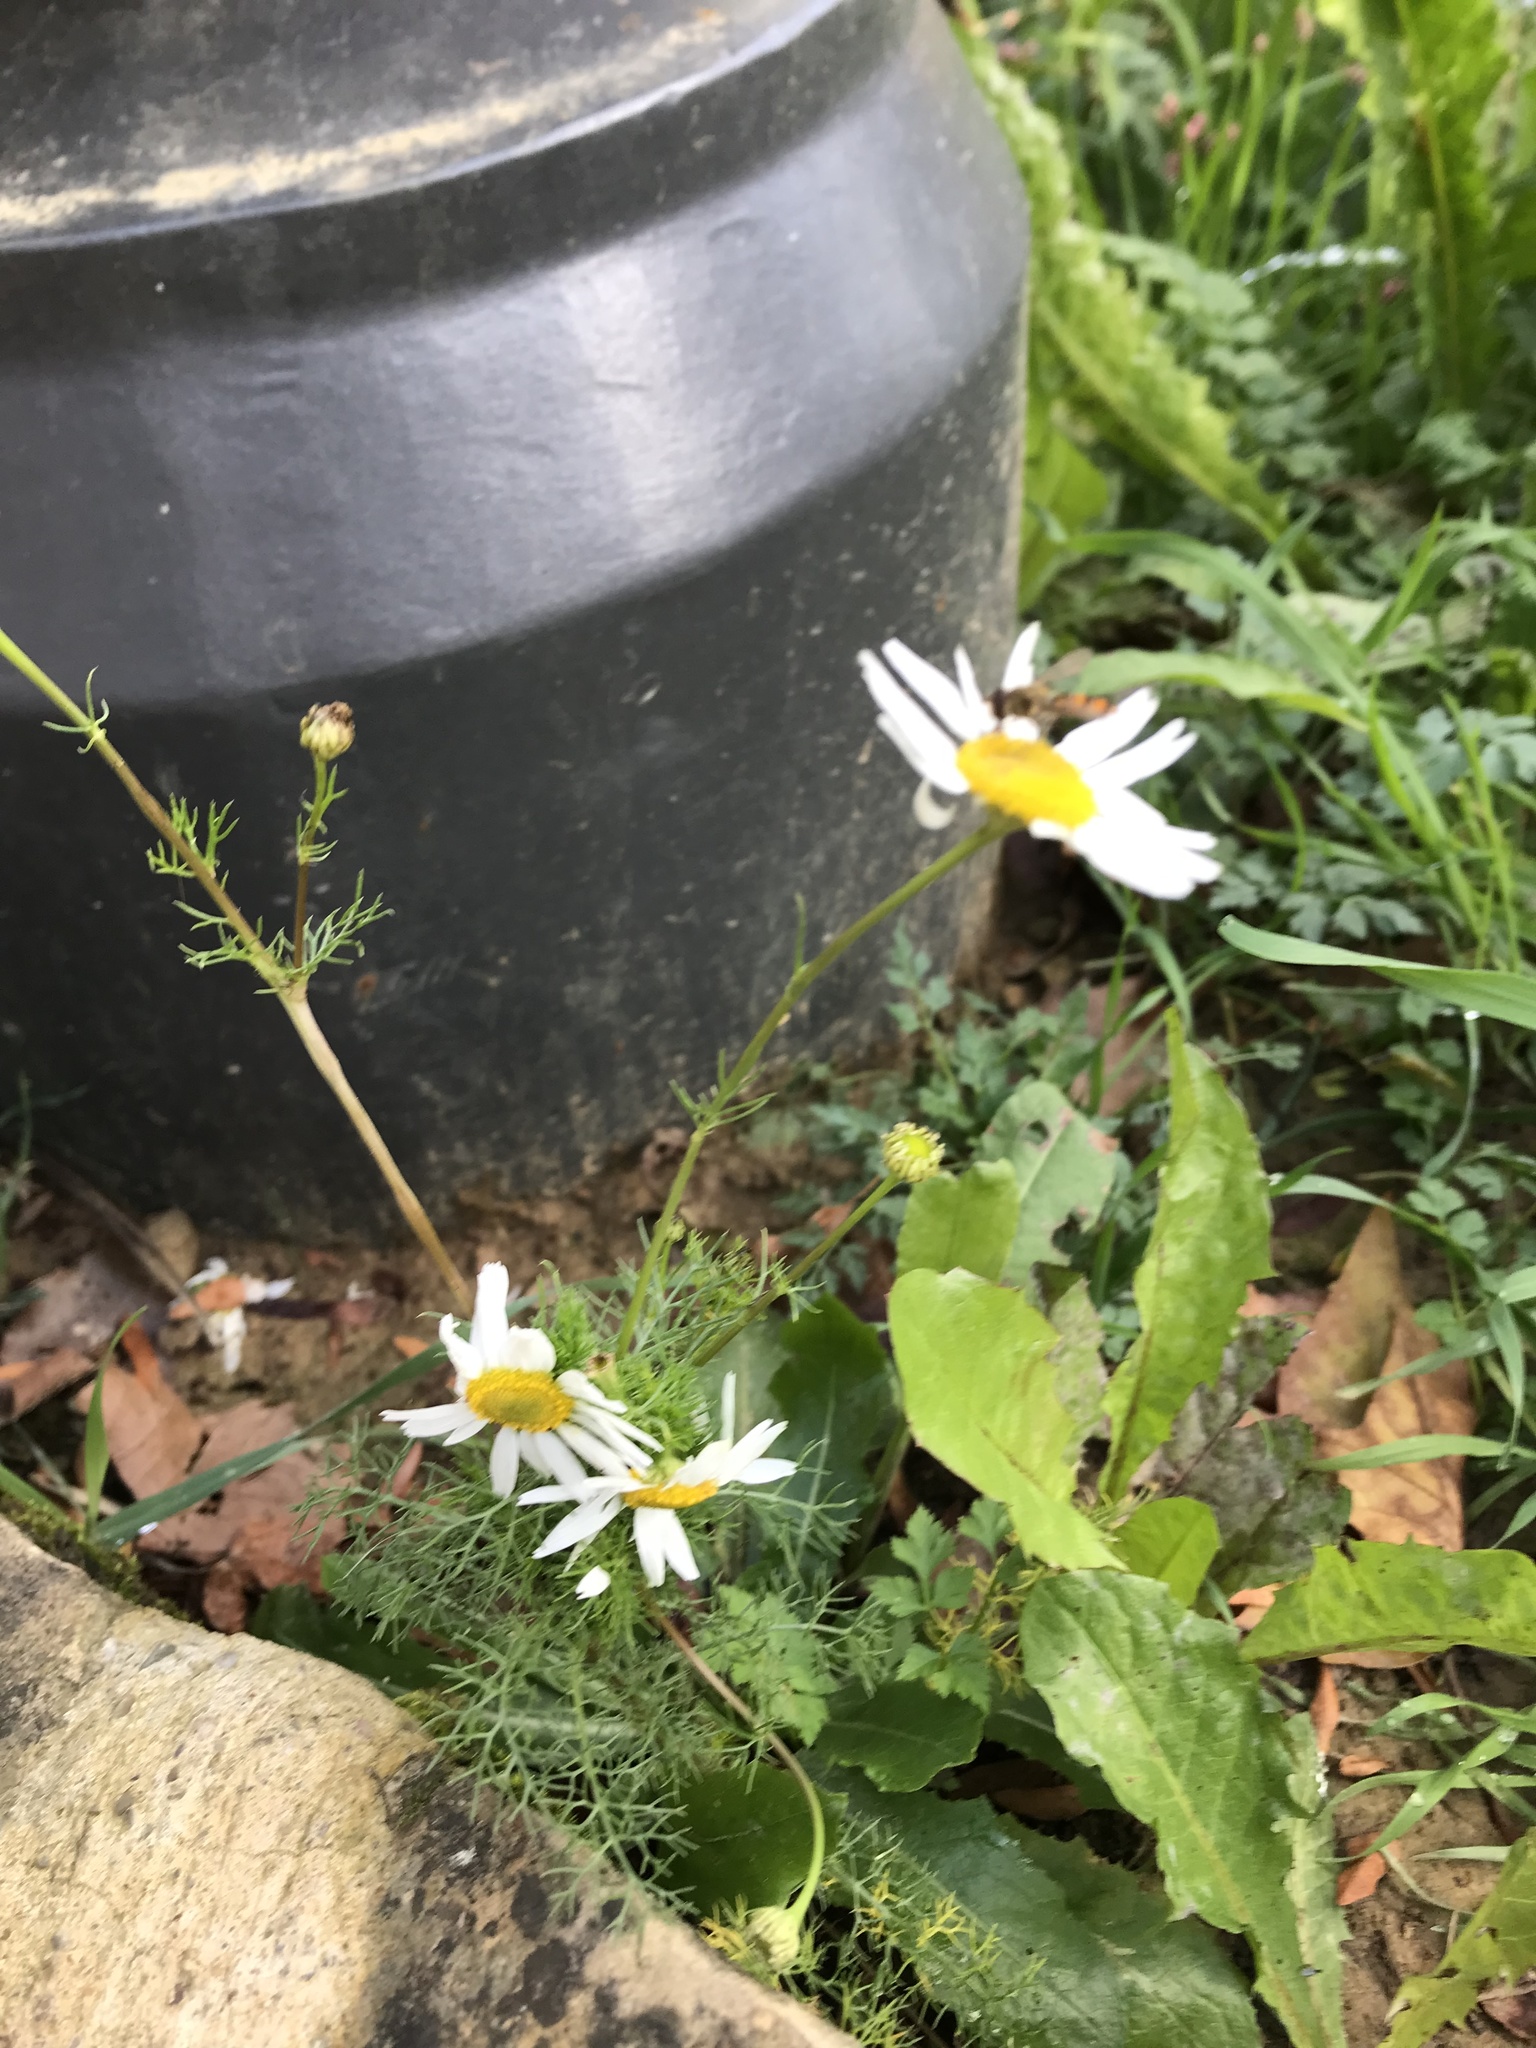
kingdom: Plantae
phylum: Tracheophyta
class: Magnoliopsida
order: Asterales
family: Asteraceae
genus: Tripleurospermum
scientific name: Tripleurospermum inodorum
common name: Scentless mayweed
